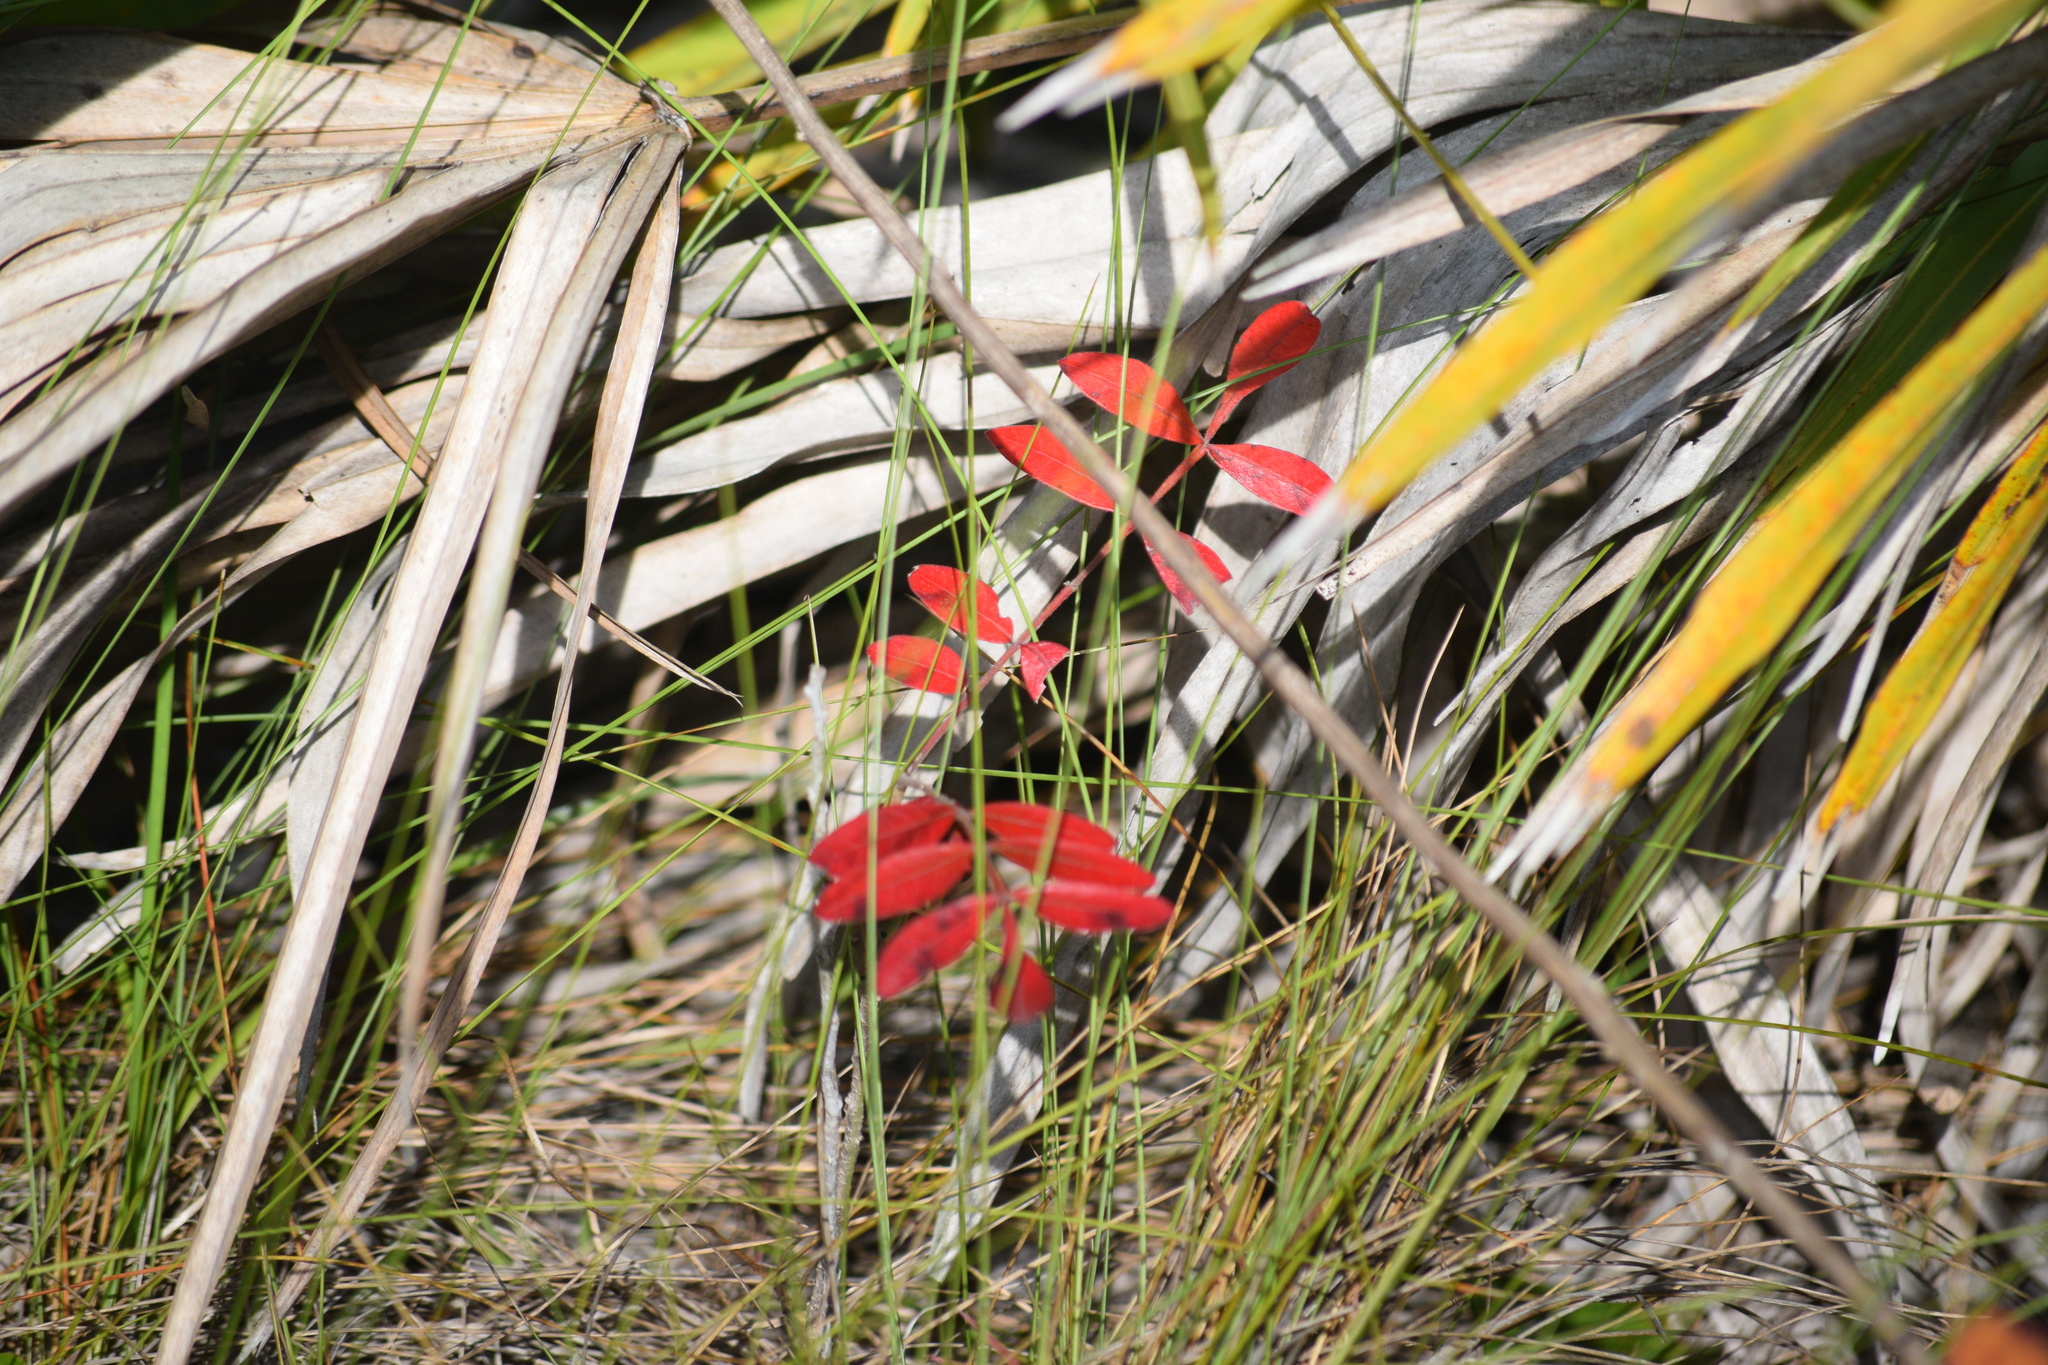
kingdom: Plantae
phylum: Tracheophyta
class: Magnoliopsida
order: Sapindales
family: Anacardiaceae
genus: Rhus
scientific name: Rhus copallina
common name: Shining sumac
